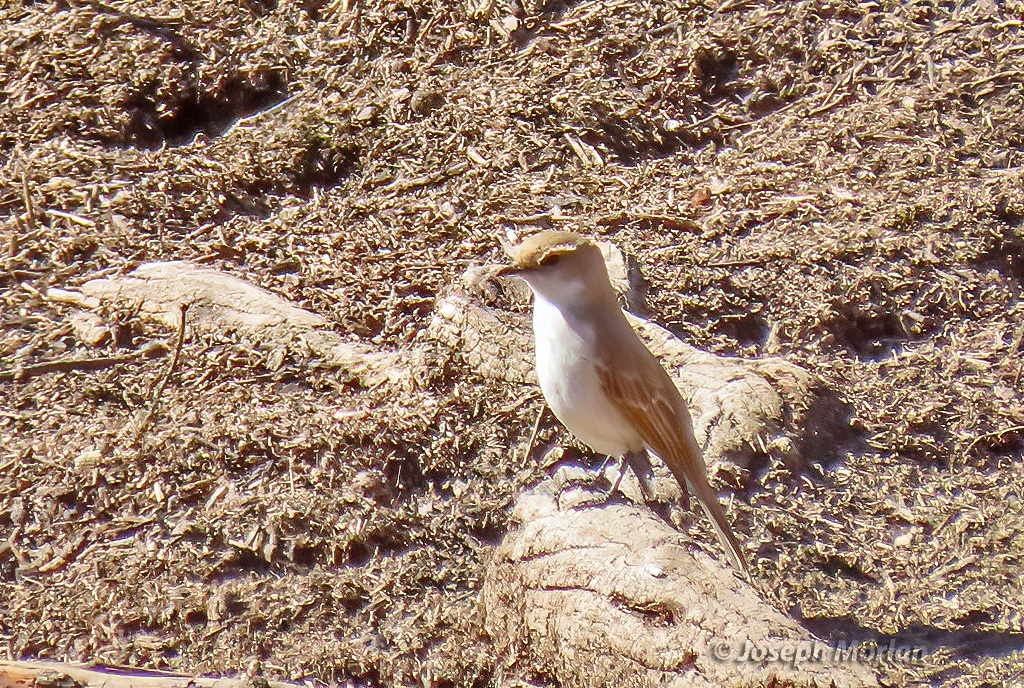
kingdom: Animalia
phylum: Chordata
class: Aves
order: Passeriformes
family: Muscicapidae
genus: Bradornis
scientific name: Bradornis mariquensis
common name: Marico flycatcher
